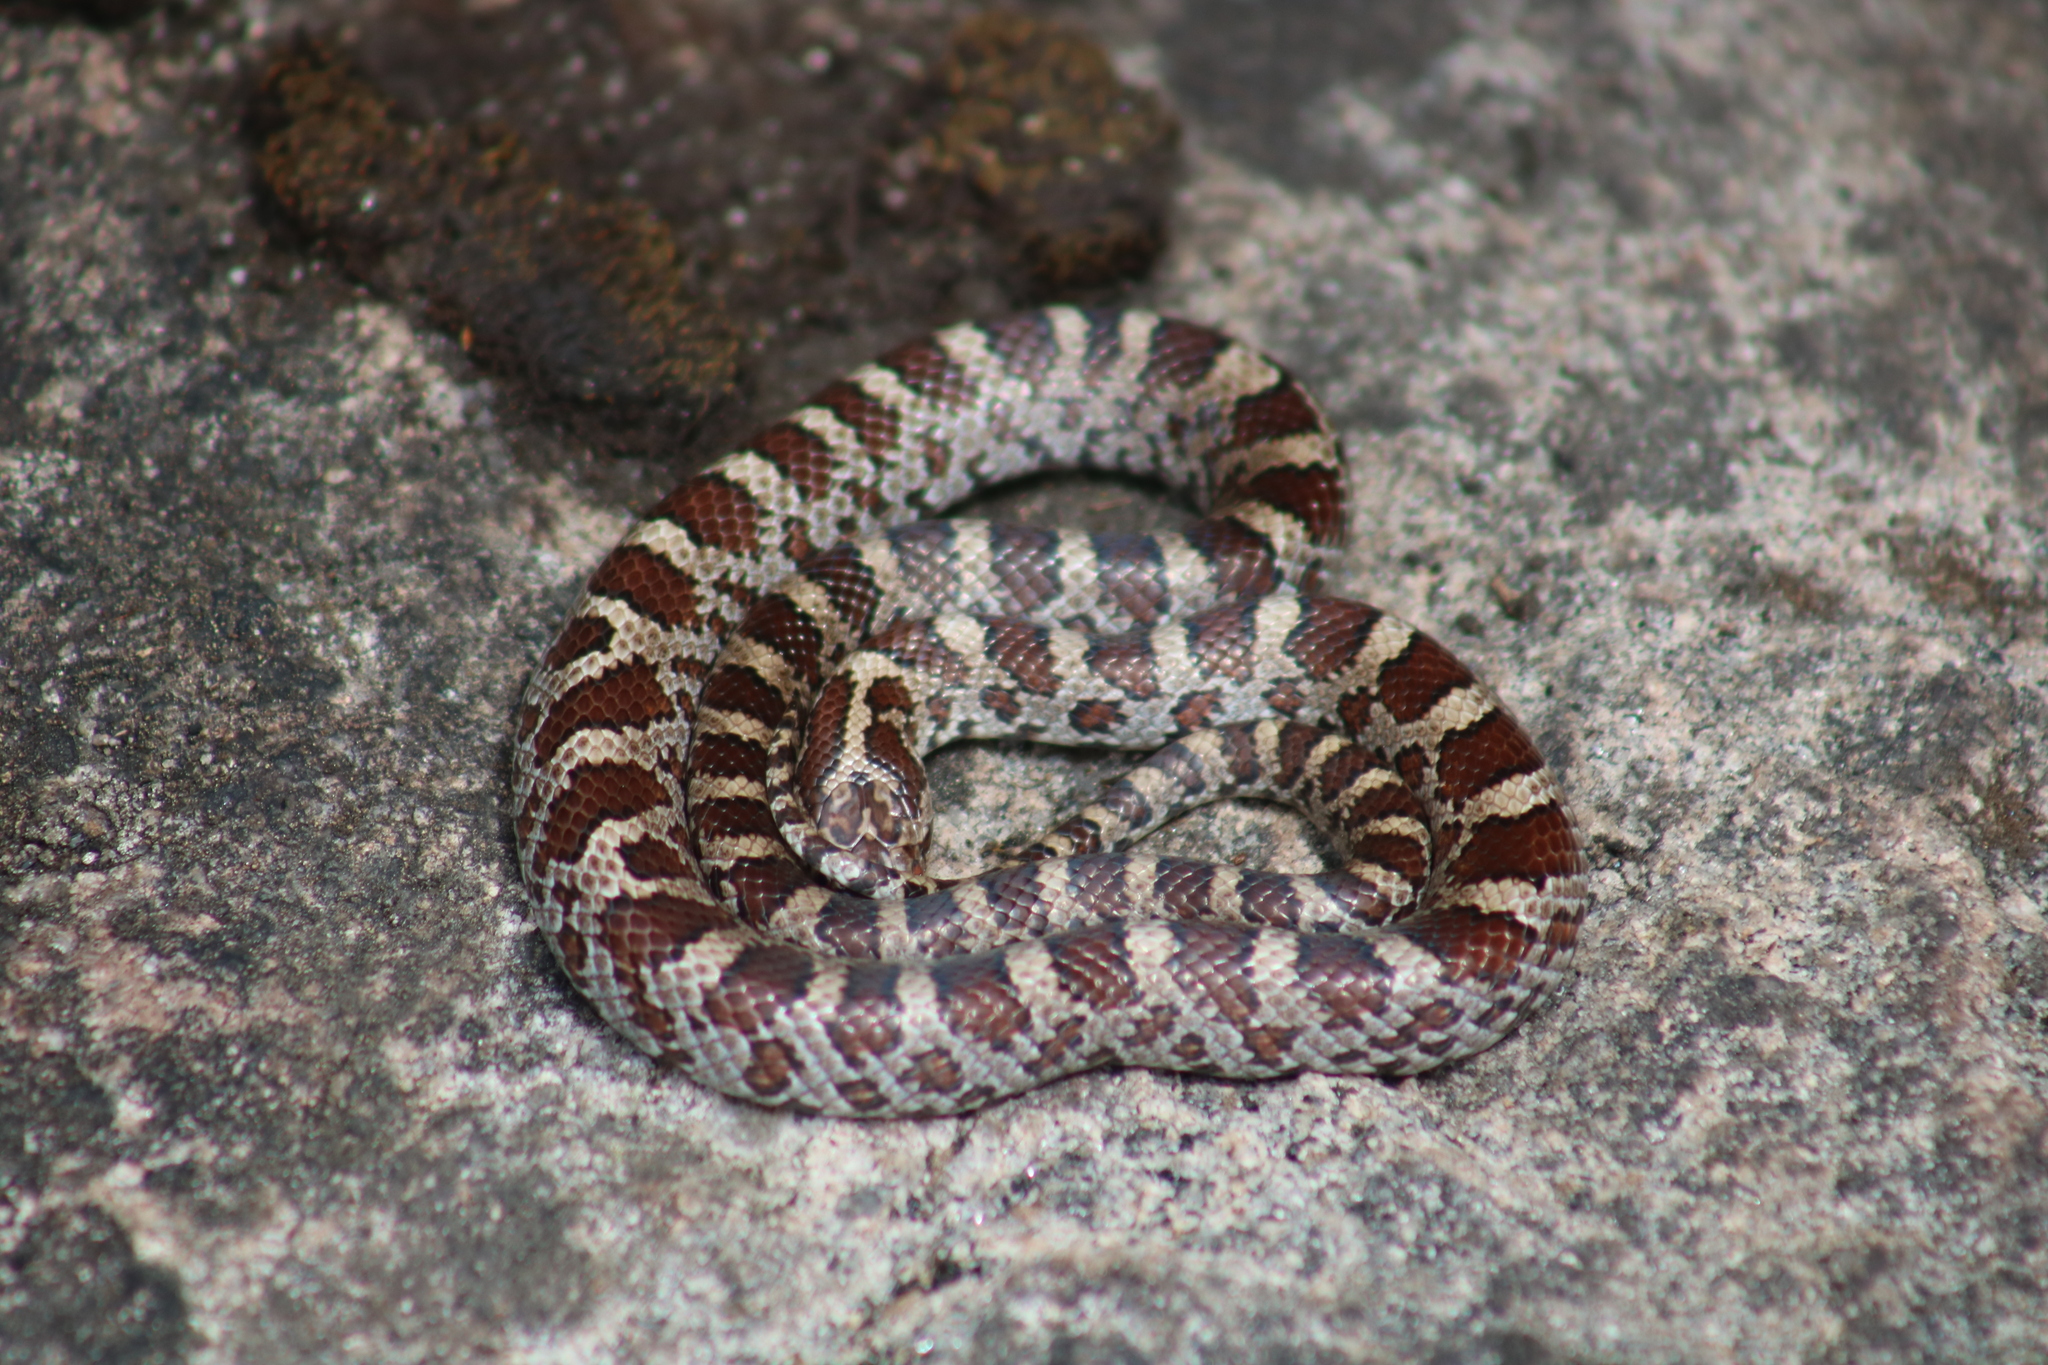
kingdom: Animalia
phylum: Chordata
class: Squamata
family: Colubridae
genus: Lampropeltis
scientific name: Lampropeltis triangulum
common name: Eastern milksnake
